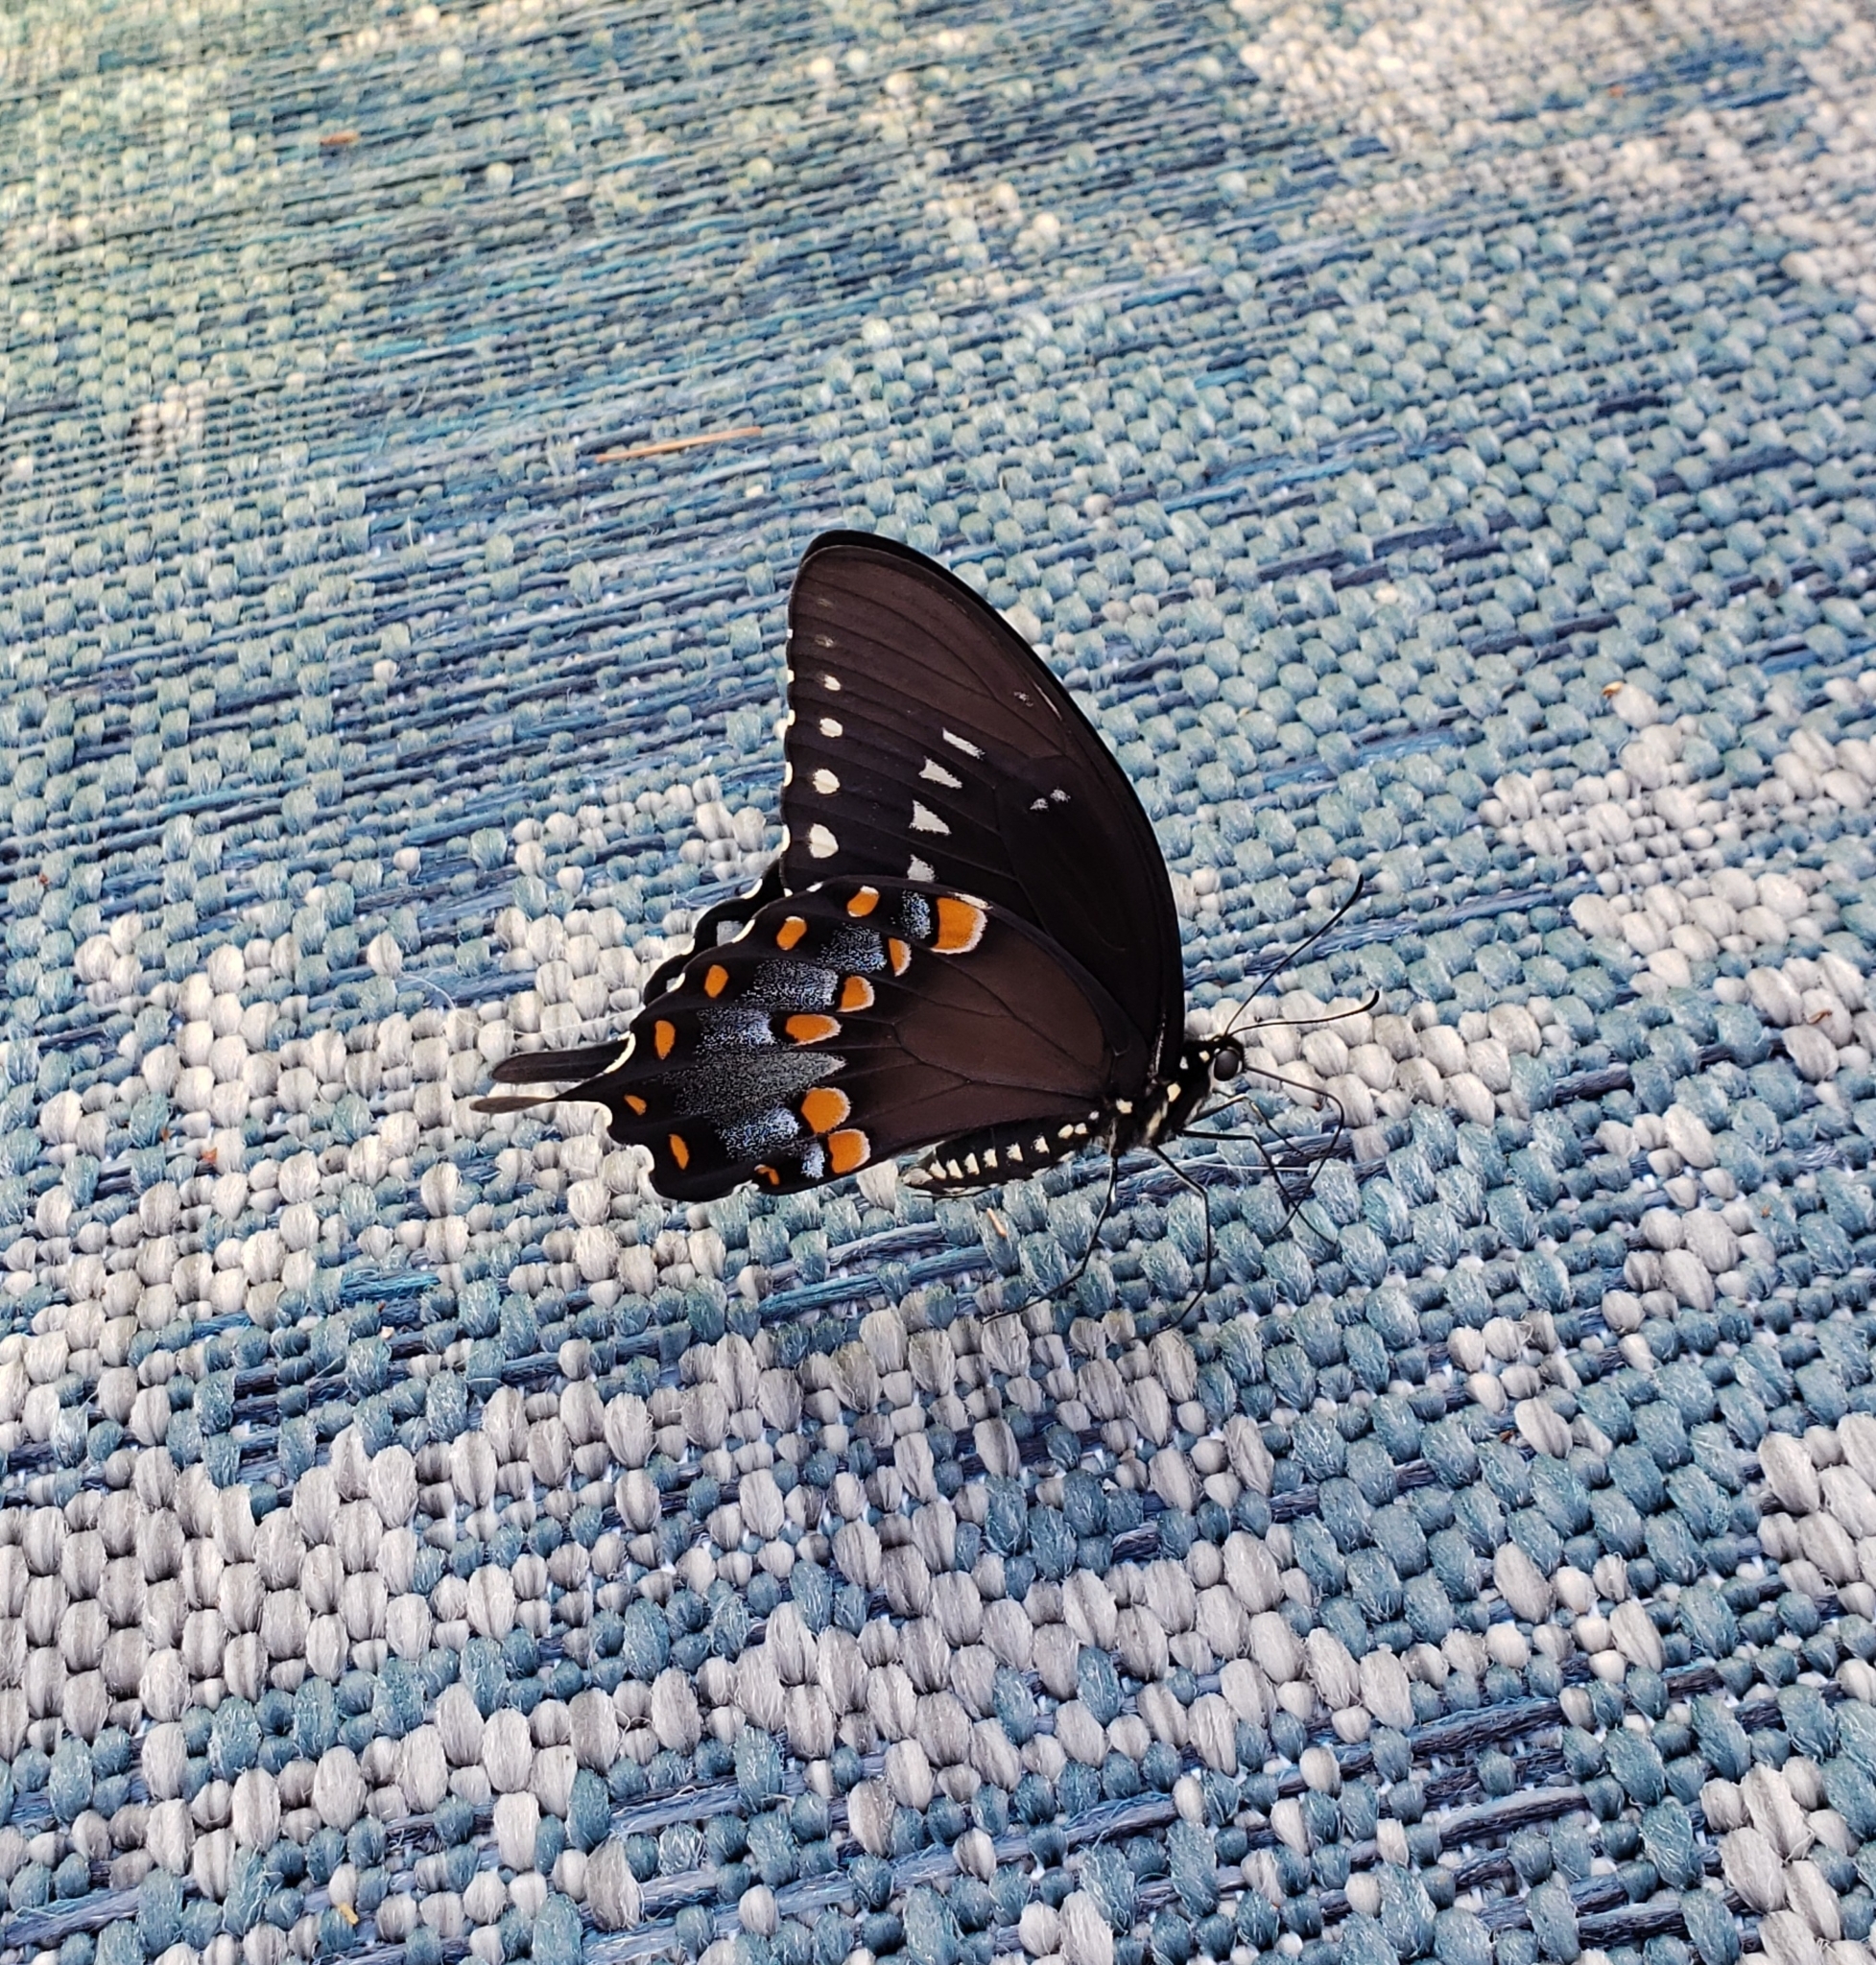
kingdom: Animalia
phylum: Arthropoda
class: Insecta
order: Lepidoptera
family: Papilionidae
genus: Papilio
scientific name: Papilio troilus
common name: Spicebush swallowtail
